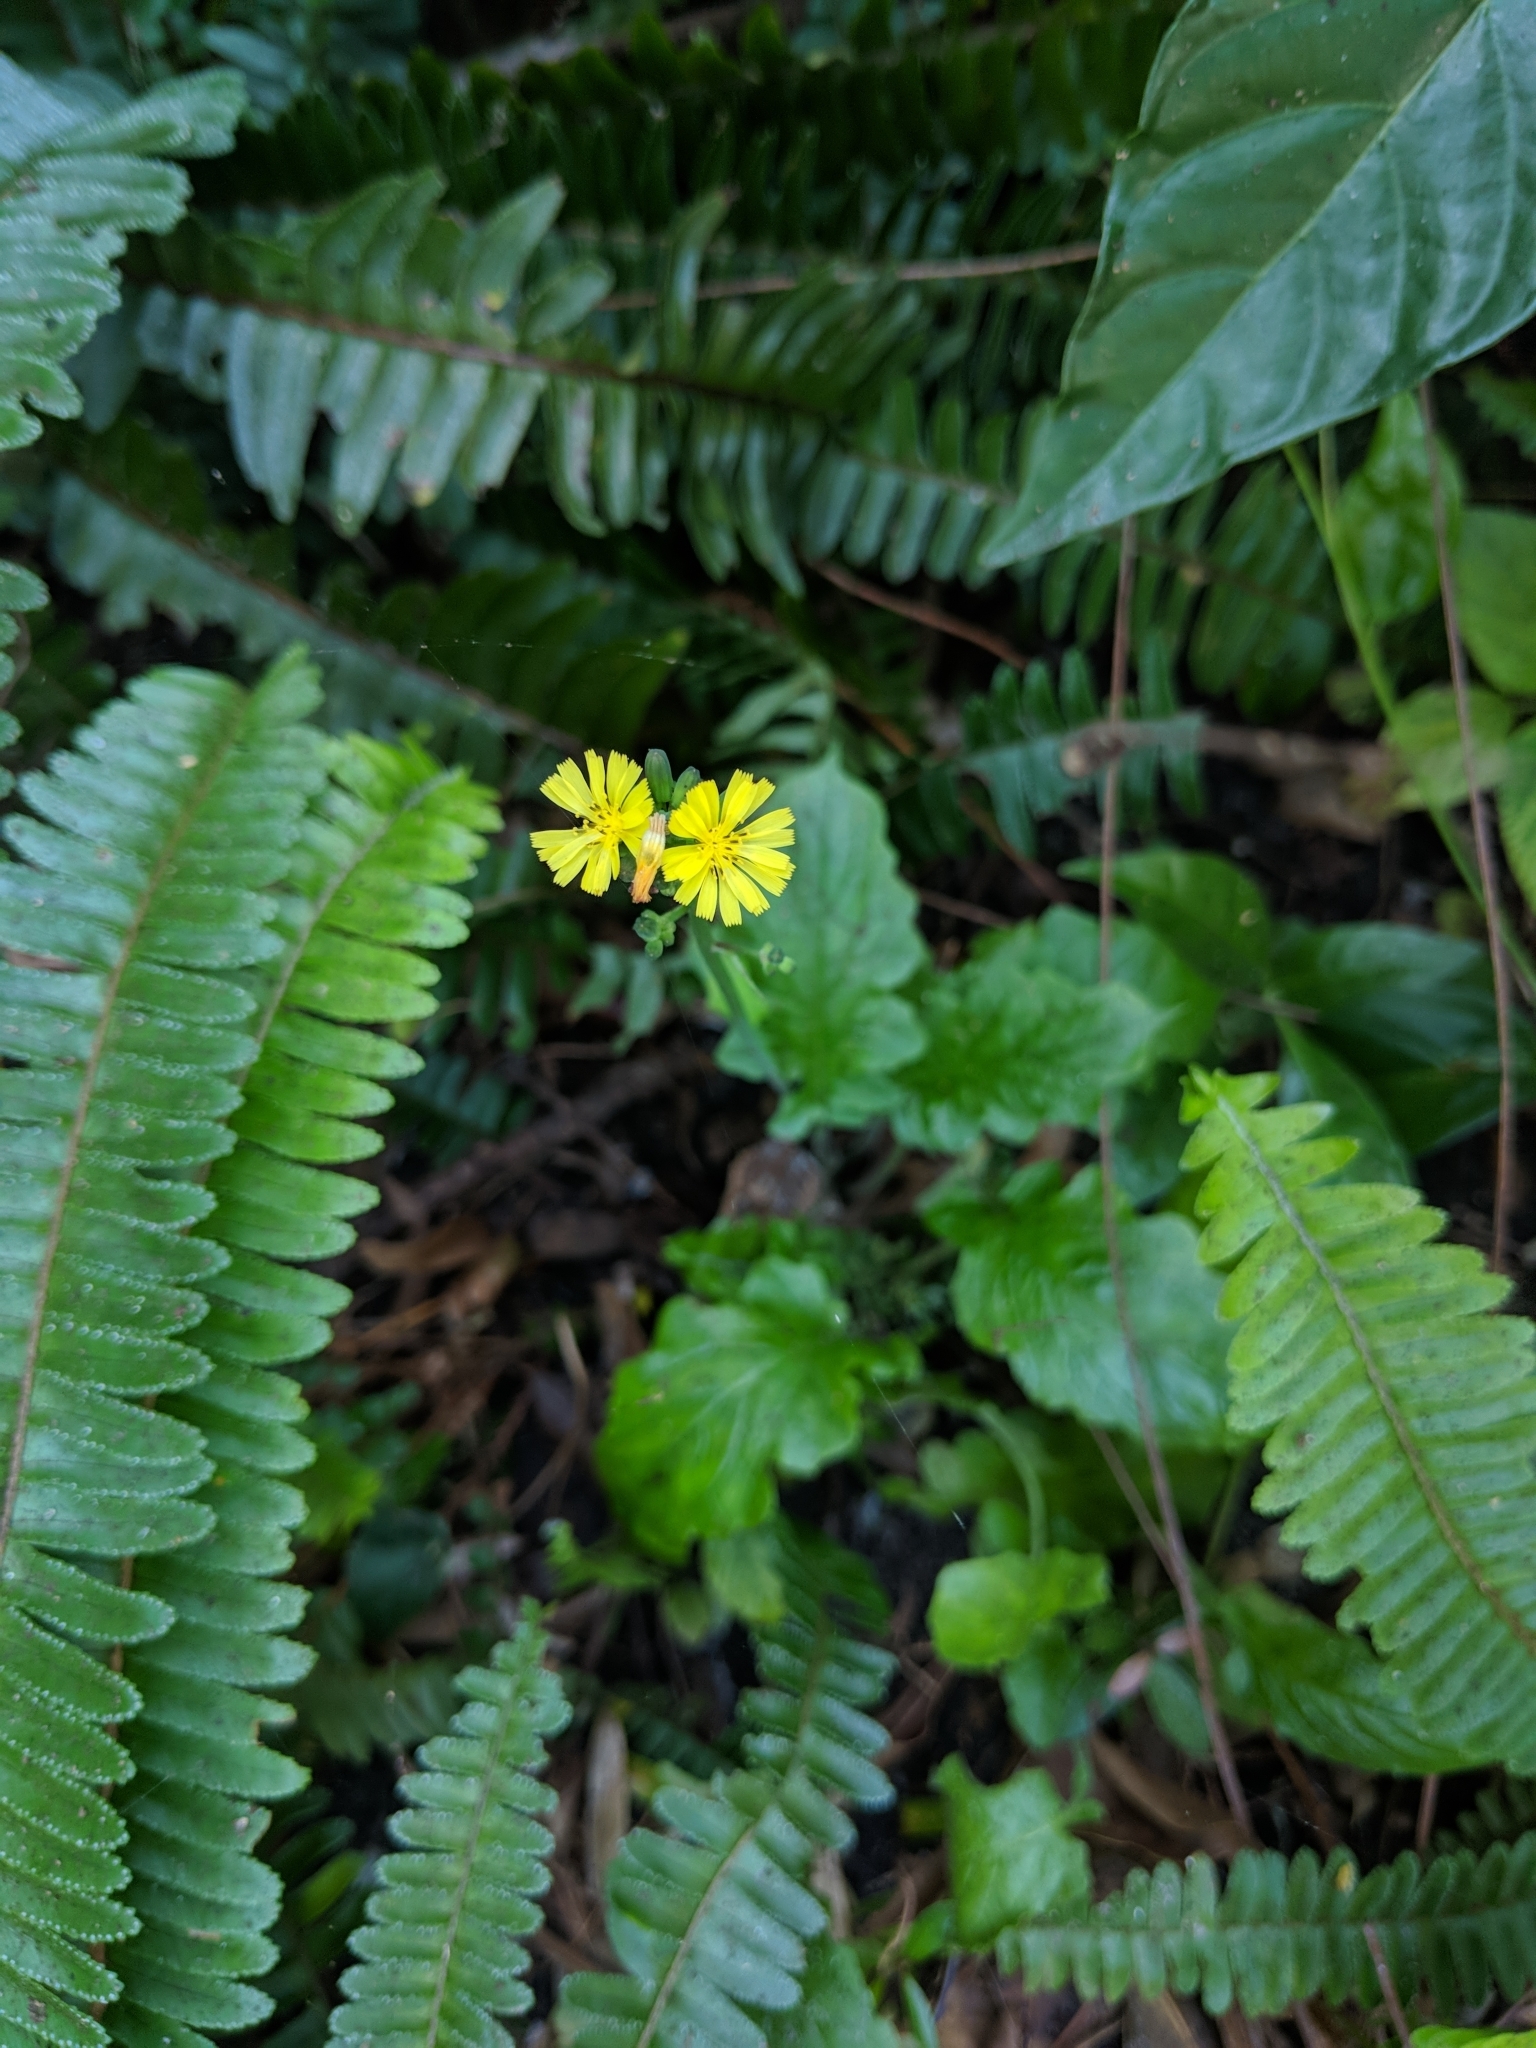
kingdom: Plantae
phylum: Tracheophyta
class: Magnoliopsida
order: Asterales
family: Asteraceae
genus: Youngia
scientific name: Youngia japonica
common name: Oriental false hawksbeard
